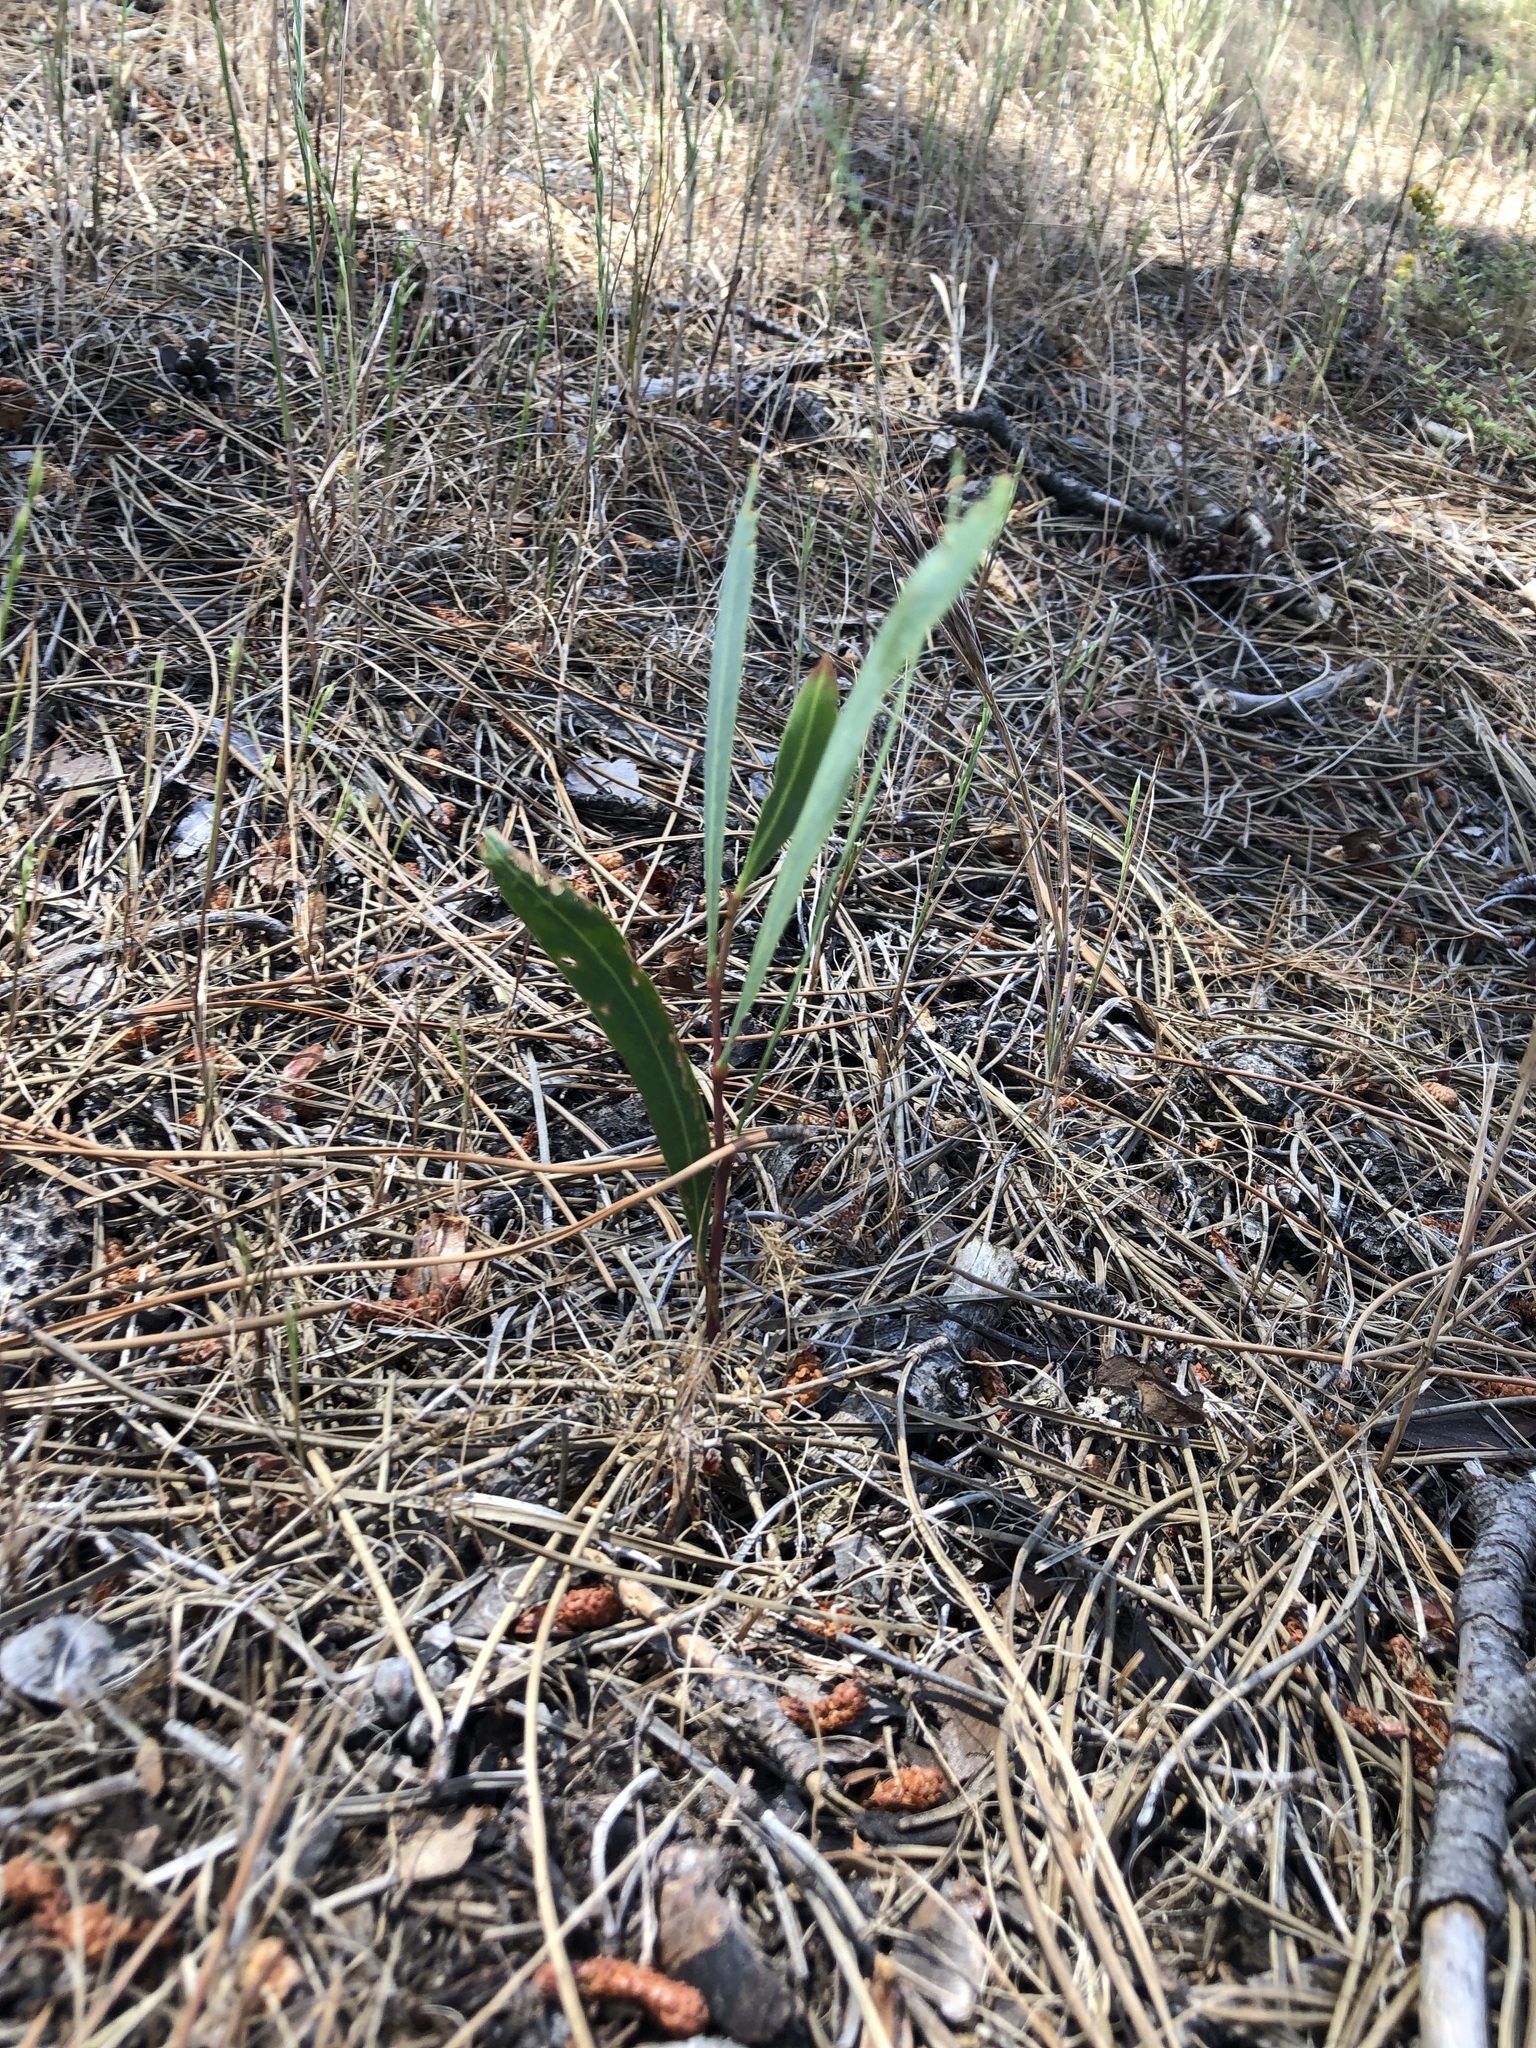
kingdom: Plantae
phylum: Tracheophyta
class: Magnoliopsida
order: Fabales
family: Fabaceae
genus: Acacia
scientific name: Acacia saligna
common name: Orange wattle
